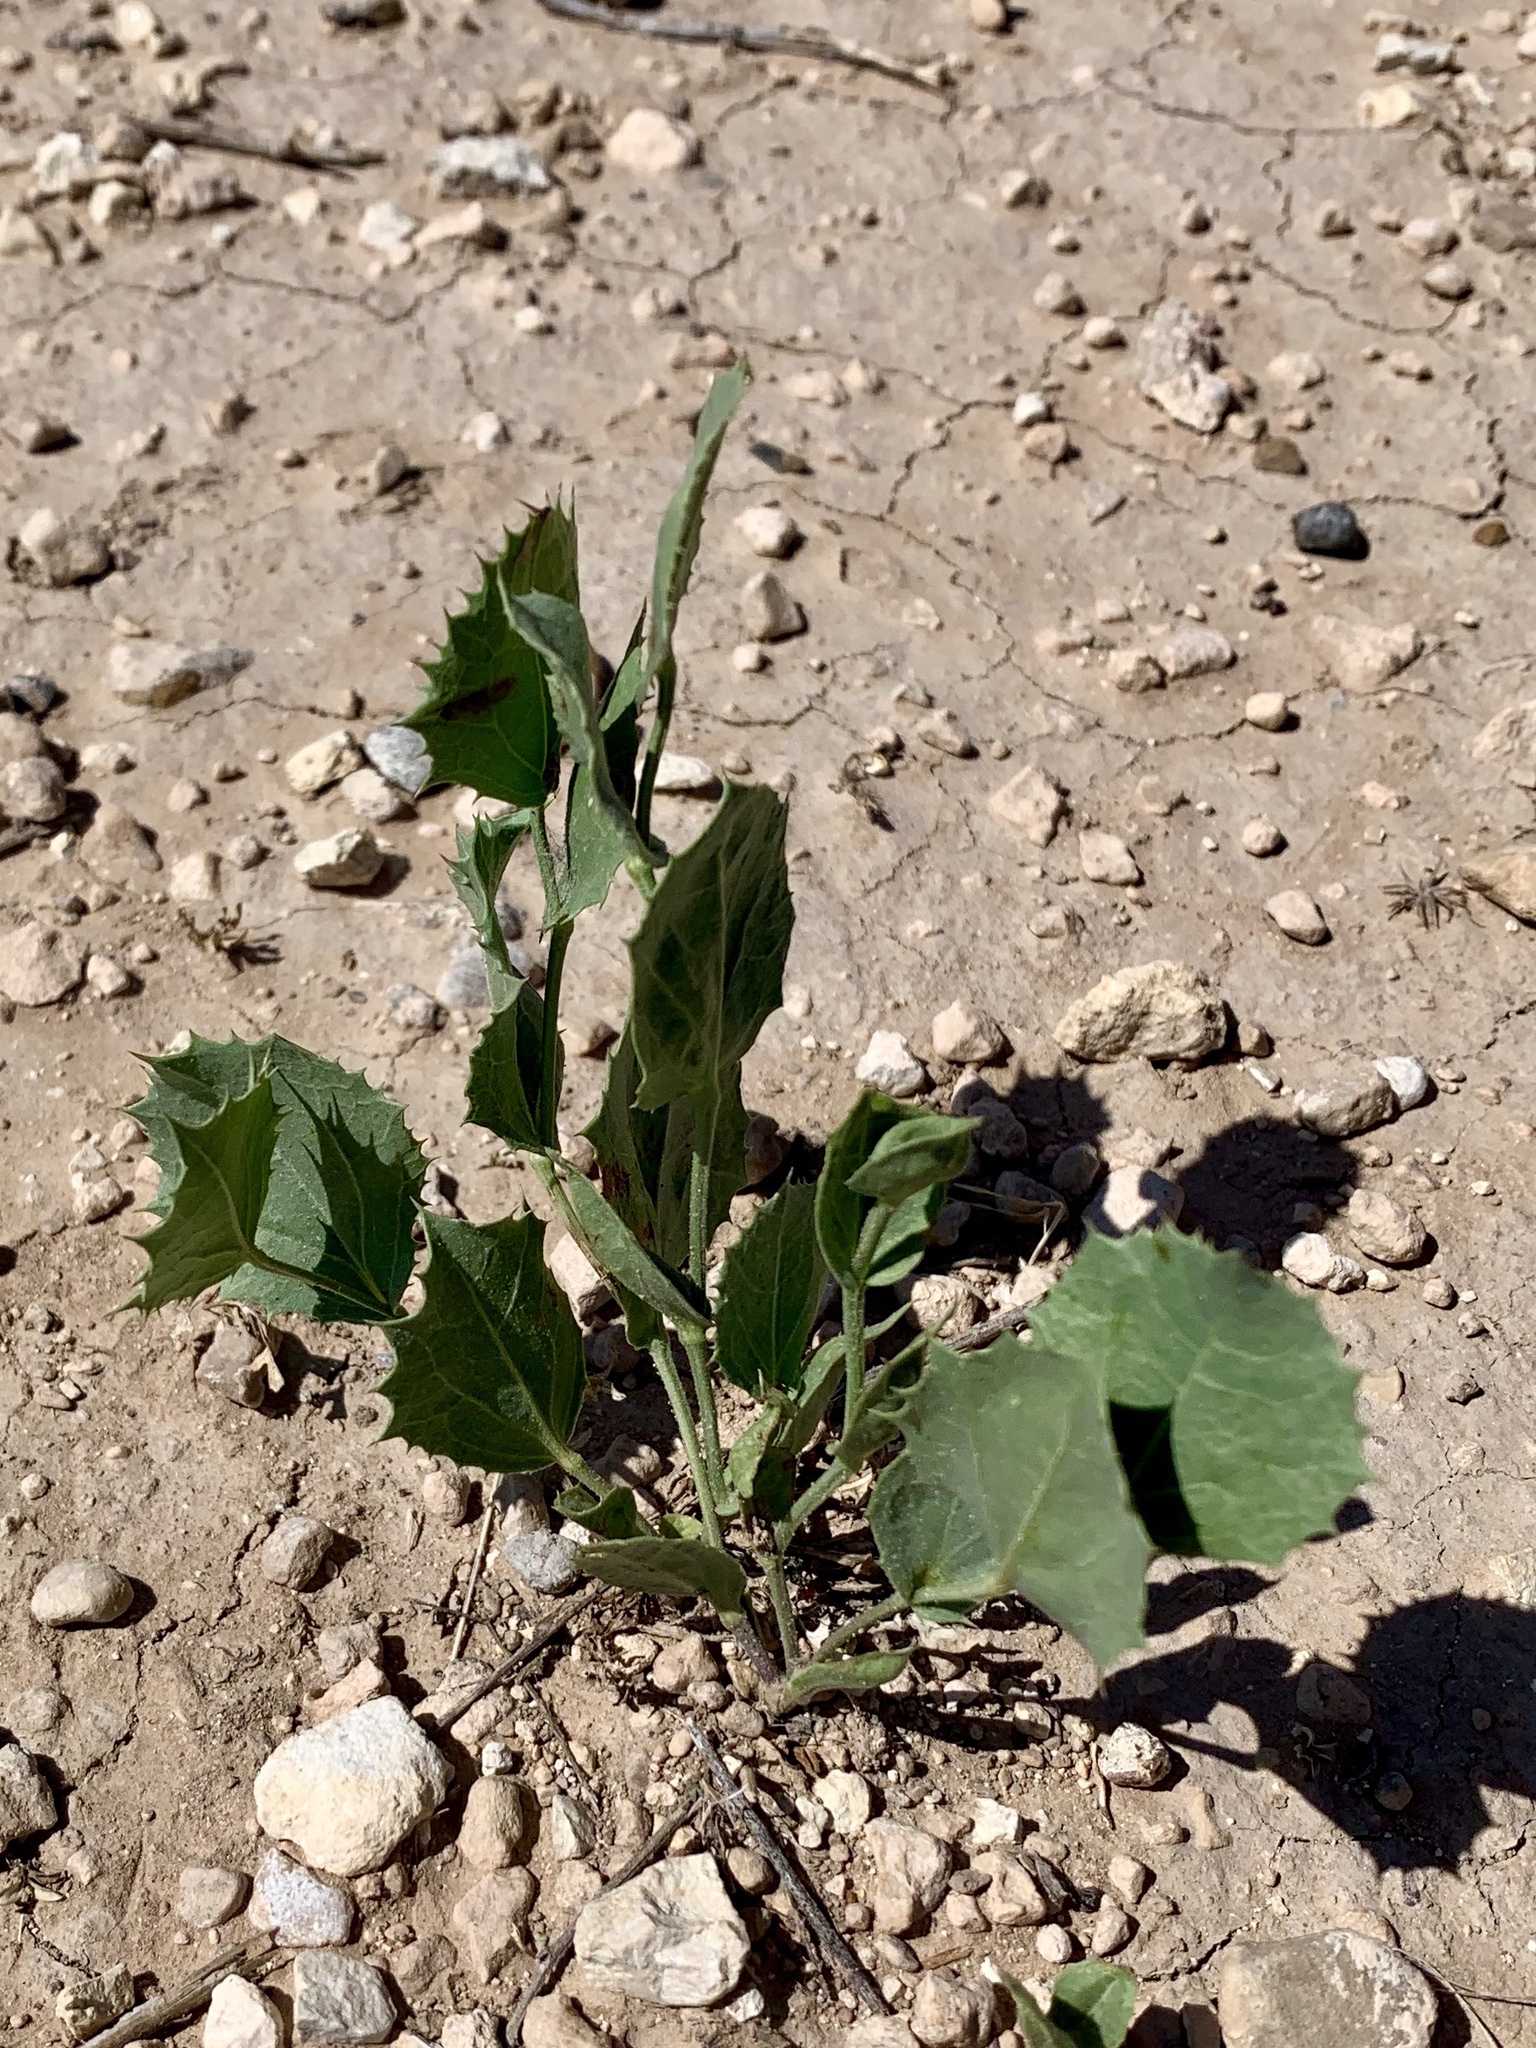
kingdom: Plantae
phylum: Tracheophyta
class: Magnoliopsida
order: Asterales
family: Asteraceae
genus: Acourtia
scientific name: Acourtia nana
